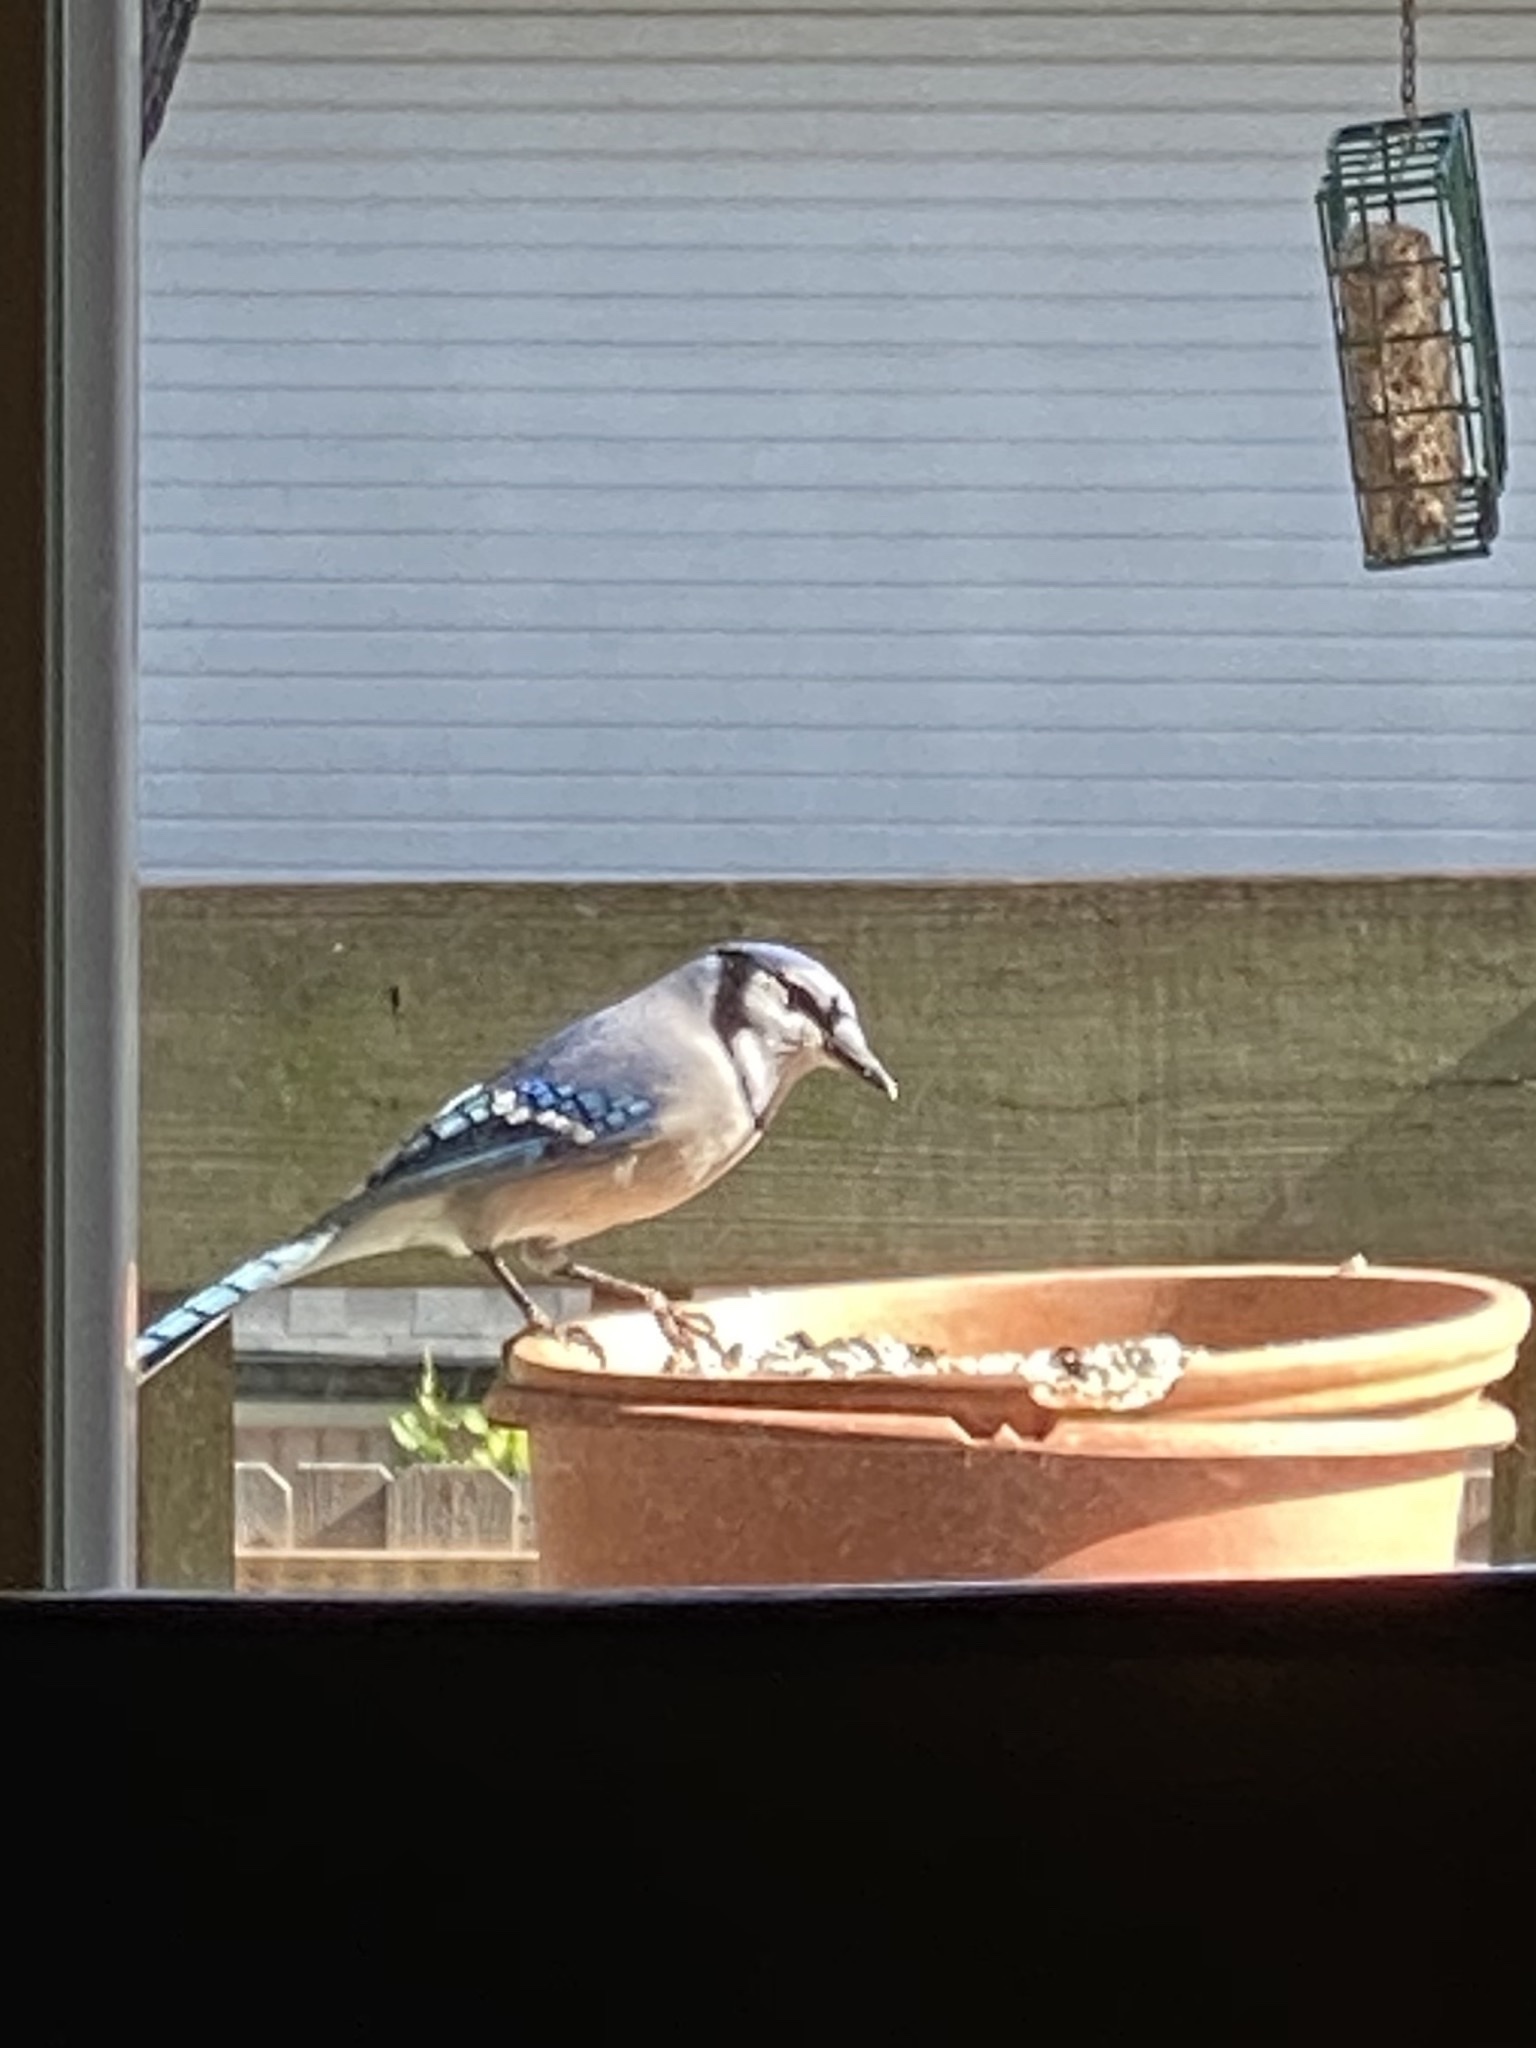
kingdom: Animalia
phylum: Chordata
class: Aves
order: Passeriformes
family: Corvidae
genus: Cyanocitta
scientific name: Cyanocitta cristata
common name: Blue jay
